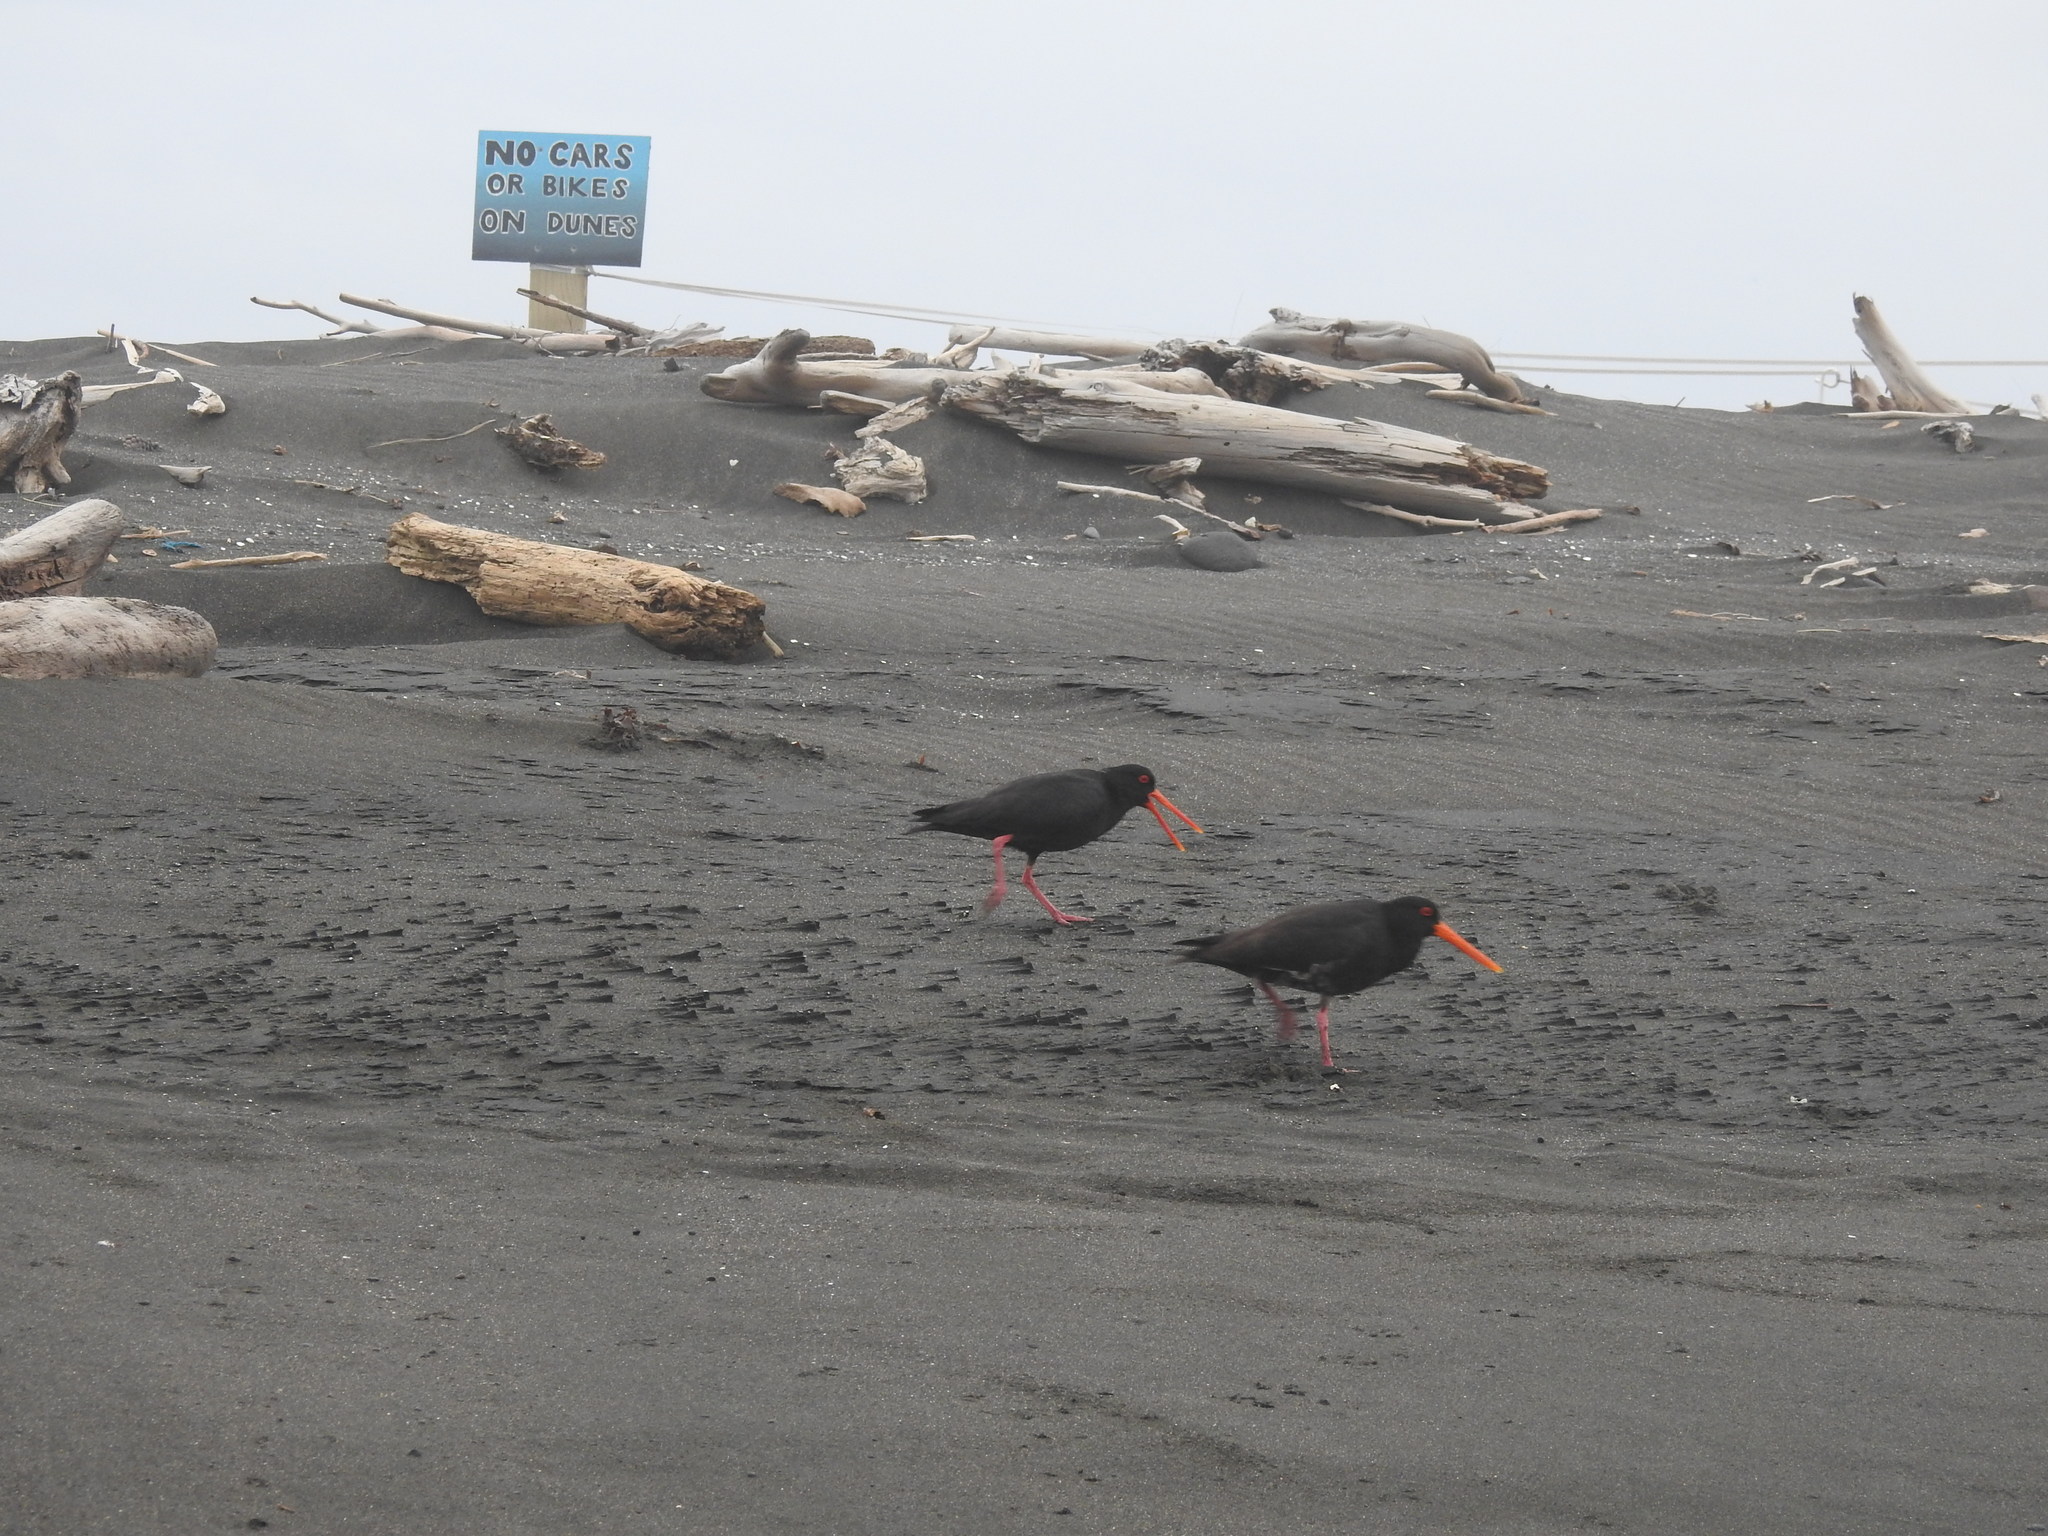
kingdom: Animalia
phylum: Chordata
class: Aves
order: Charadriiformes
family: Haematopodidae
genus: Haematopus
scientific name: Haematopus unicolor
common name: Variable oystercatcher
